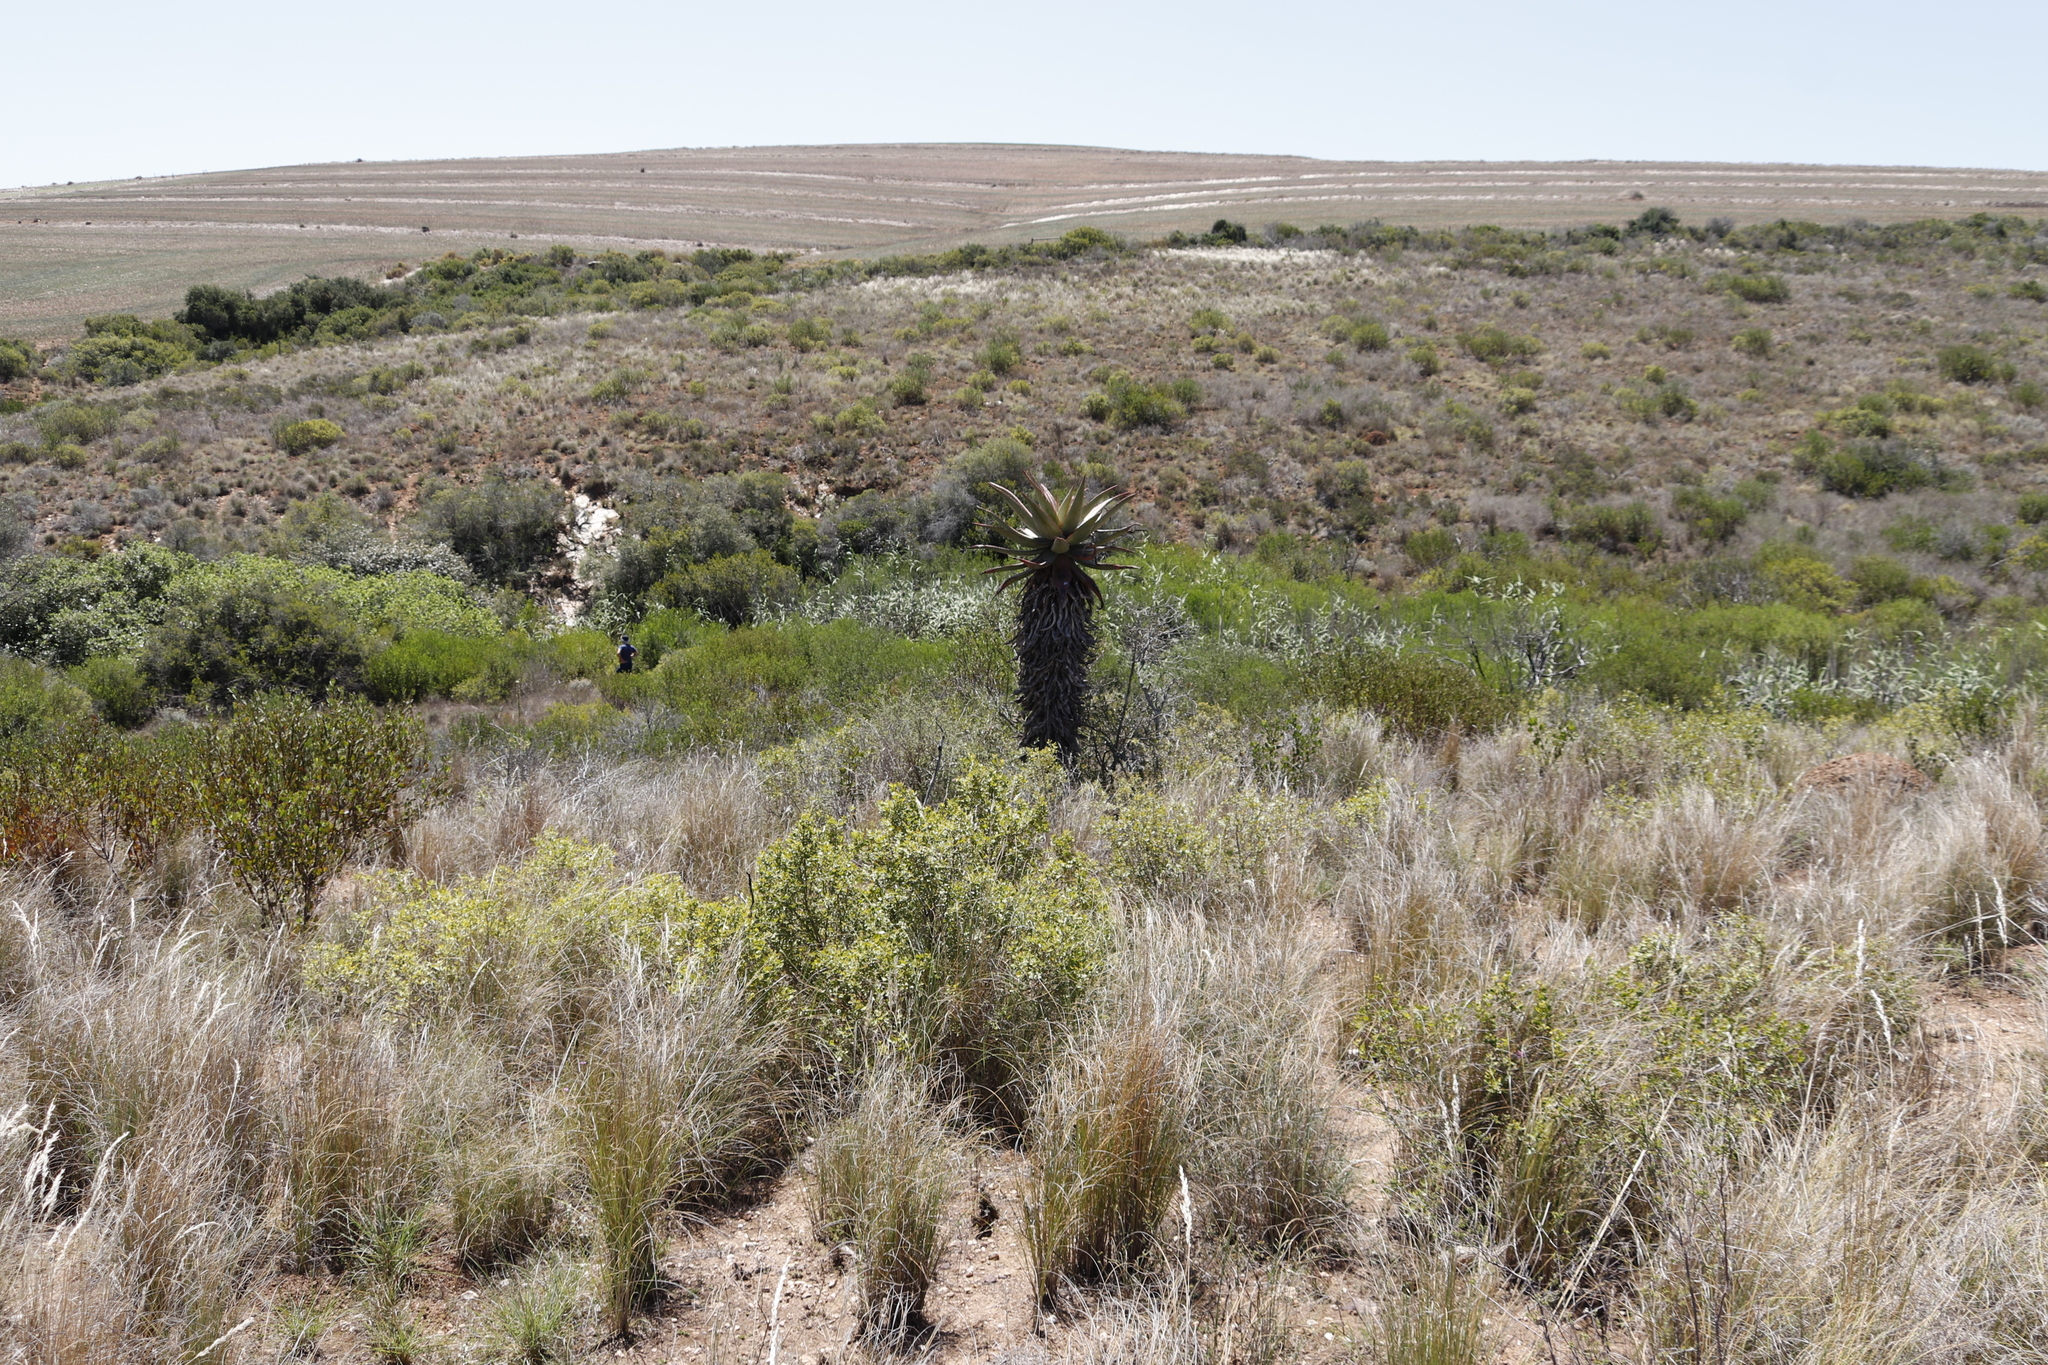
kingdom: Plantae
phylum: Tracheophyta
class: Liliopsida
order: Asparagales
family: Asphodelaceae
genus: Aloe
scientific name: Aloe ferox
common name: Bitter aloe
